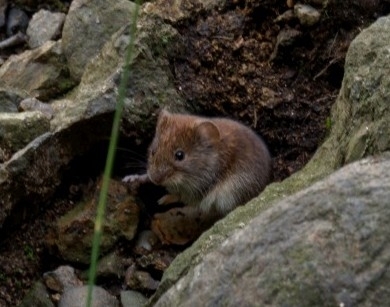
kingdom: Animalia
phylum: Chordata
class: Mammalia
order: Rodentia
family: Cricetidae
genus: Myodes
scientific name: Myodes glareolus
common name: Bank vole
